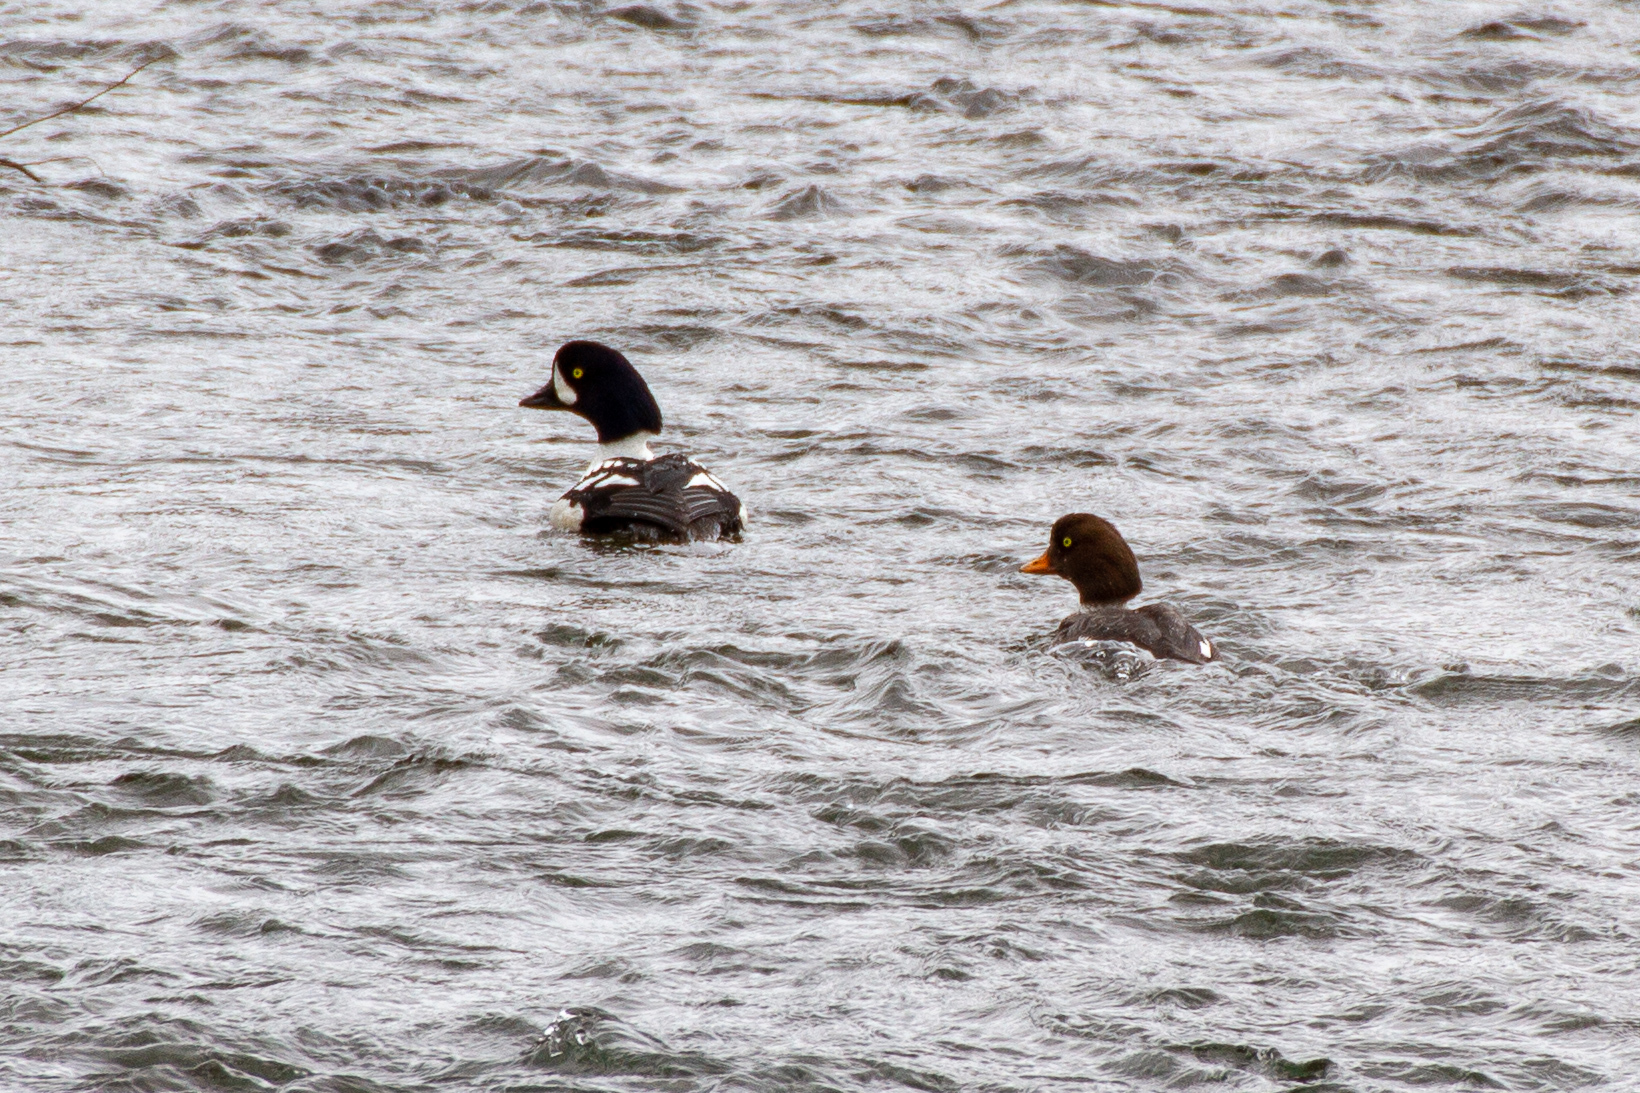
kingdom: Animalia
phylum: Chordata
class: Aves
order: Anseriformes
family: Anatidae
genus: Bucephala
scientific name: Bucephala islandica
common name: Barrow's goldeneye
